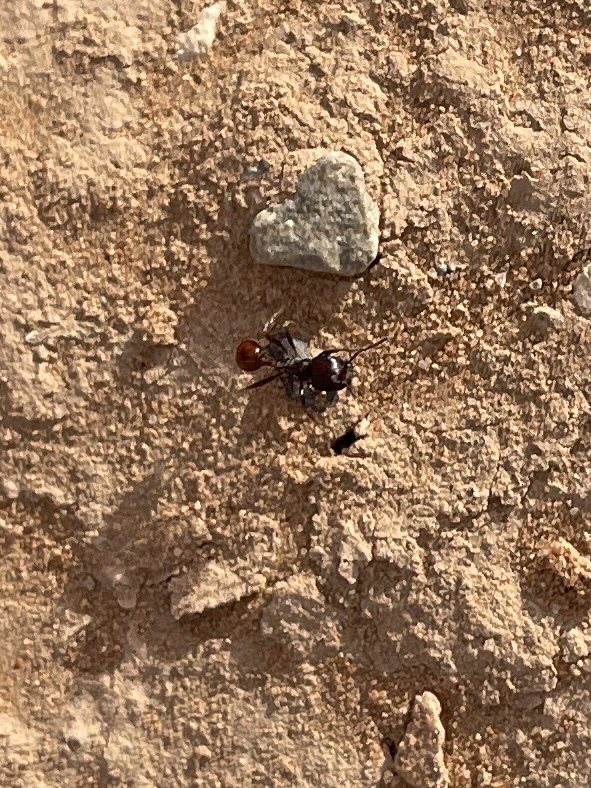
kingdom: Animalia
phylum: Arthropoda
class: Insecta
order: Hymenoptera
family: Formicidae
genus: Pogonomyrmex
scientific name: Pogonomyrmex rugosus
